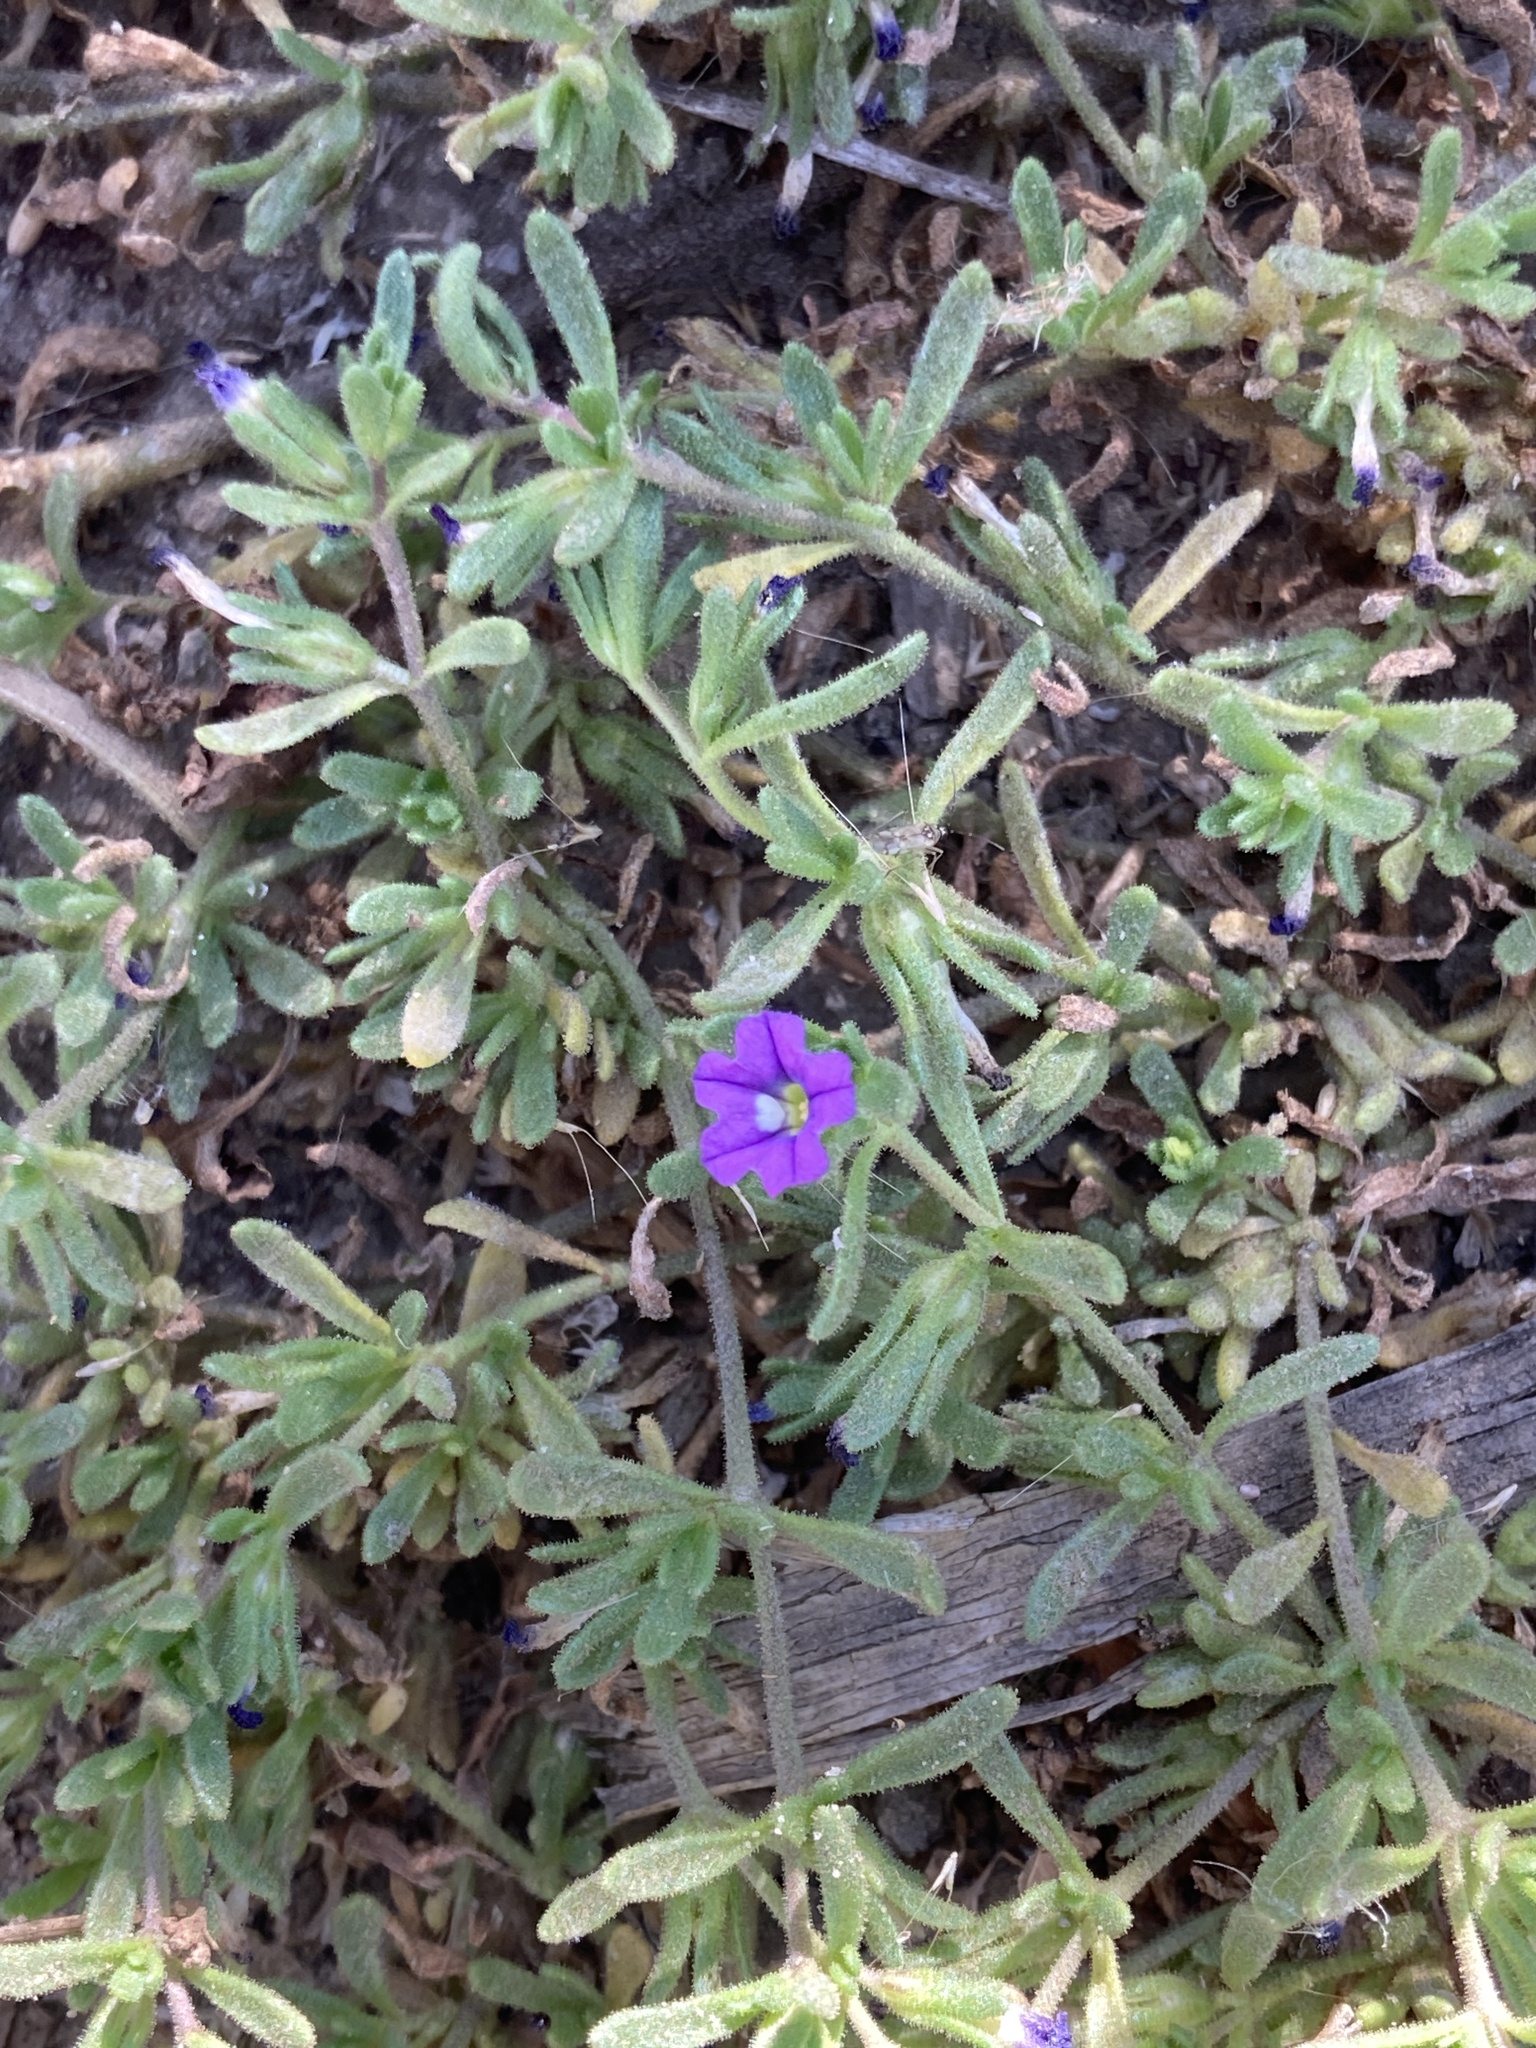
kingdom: Plantae
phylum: Tracheophyta
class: Magnoliopsida
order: Solanales
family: Solanaceae
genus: Calibrachoa
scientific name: Calibrachoa parviflora
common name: Seaside petunia
